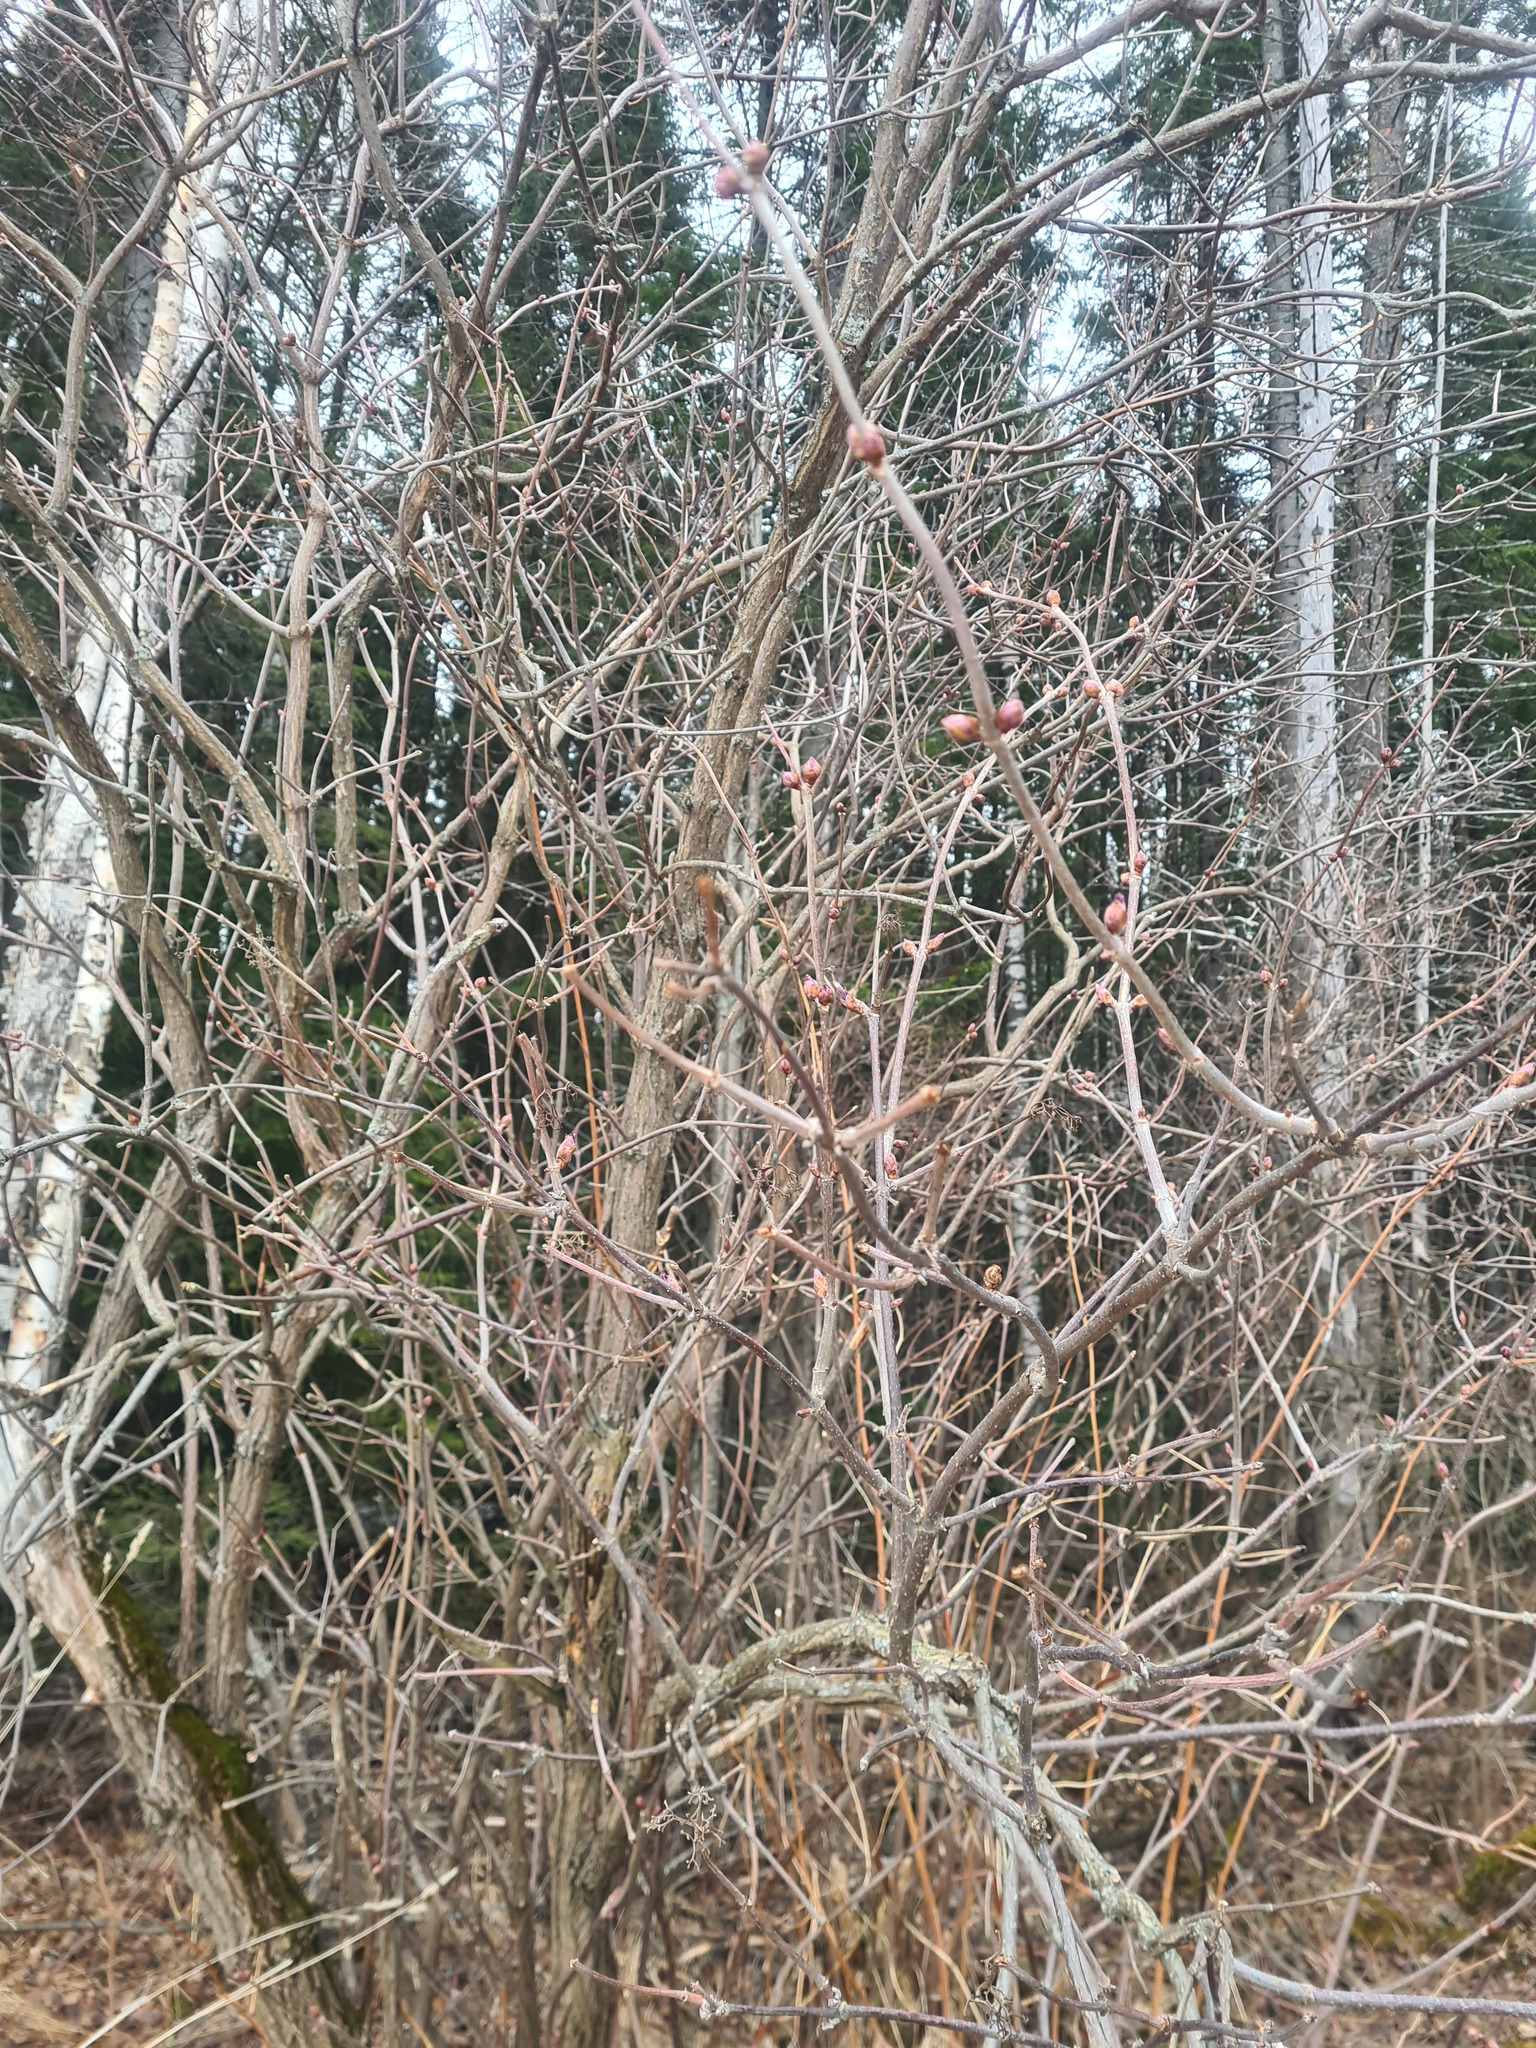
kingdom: Plantae
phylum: Tracheophyta
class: Magnoliopsida
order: Dipsacales
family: Viburnaceae
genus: Sambucus
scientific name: Sambucus sibirica
